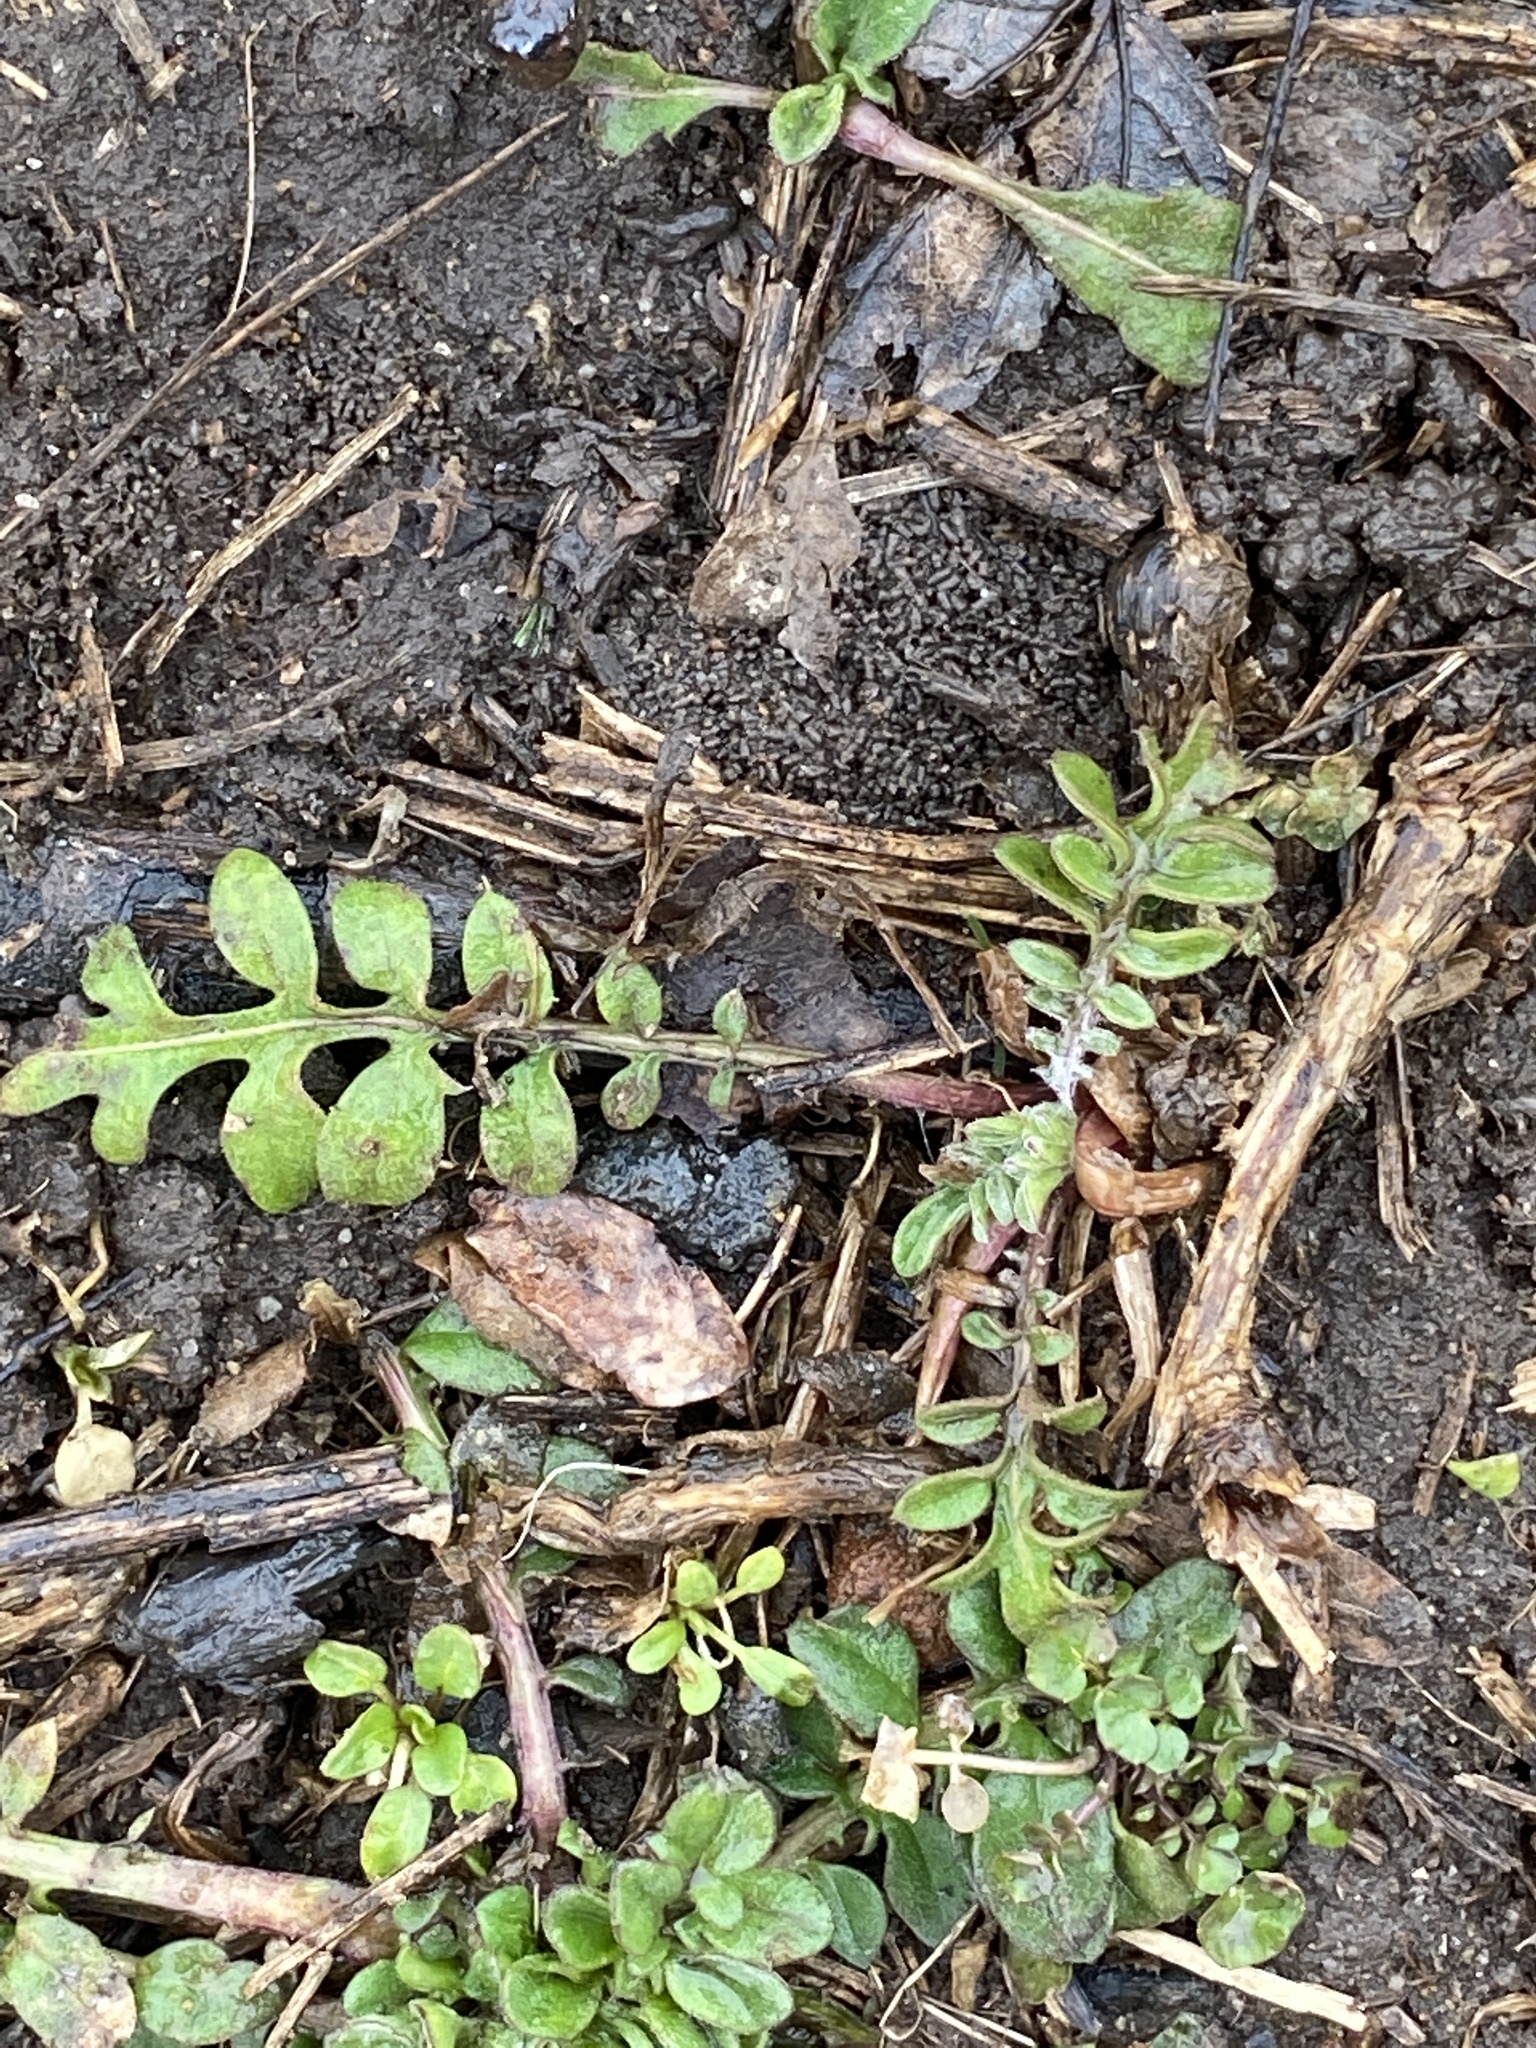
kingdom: Plantae
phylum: Tracheophyta
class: Magnoliopsida
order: Asterales
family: Asteraceae
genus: Centaurea
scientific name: Centaurea stoebe
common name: Spotted knapweed
